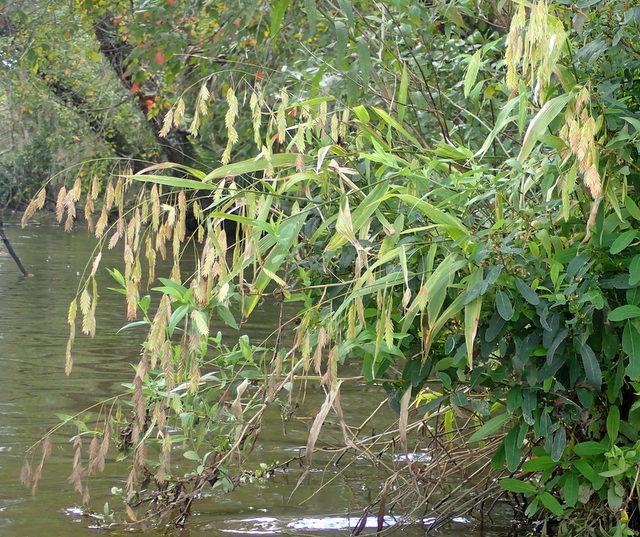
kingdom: Plantae
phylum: Tracheophyta
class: Liliopsida
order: Poales
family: Poaceae
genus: Chasmanthium
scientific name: Chasmanthium latifolium
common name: Broad-leaved chasmanthium
